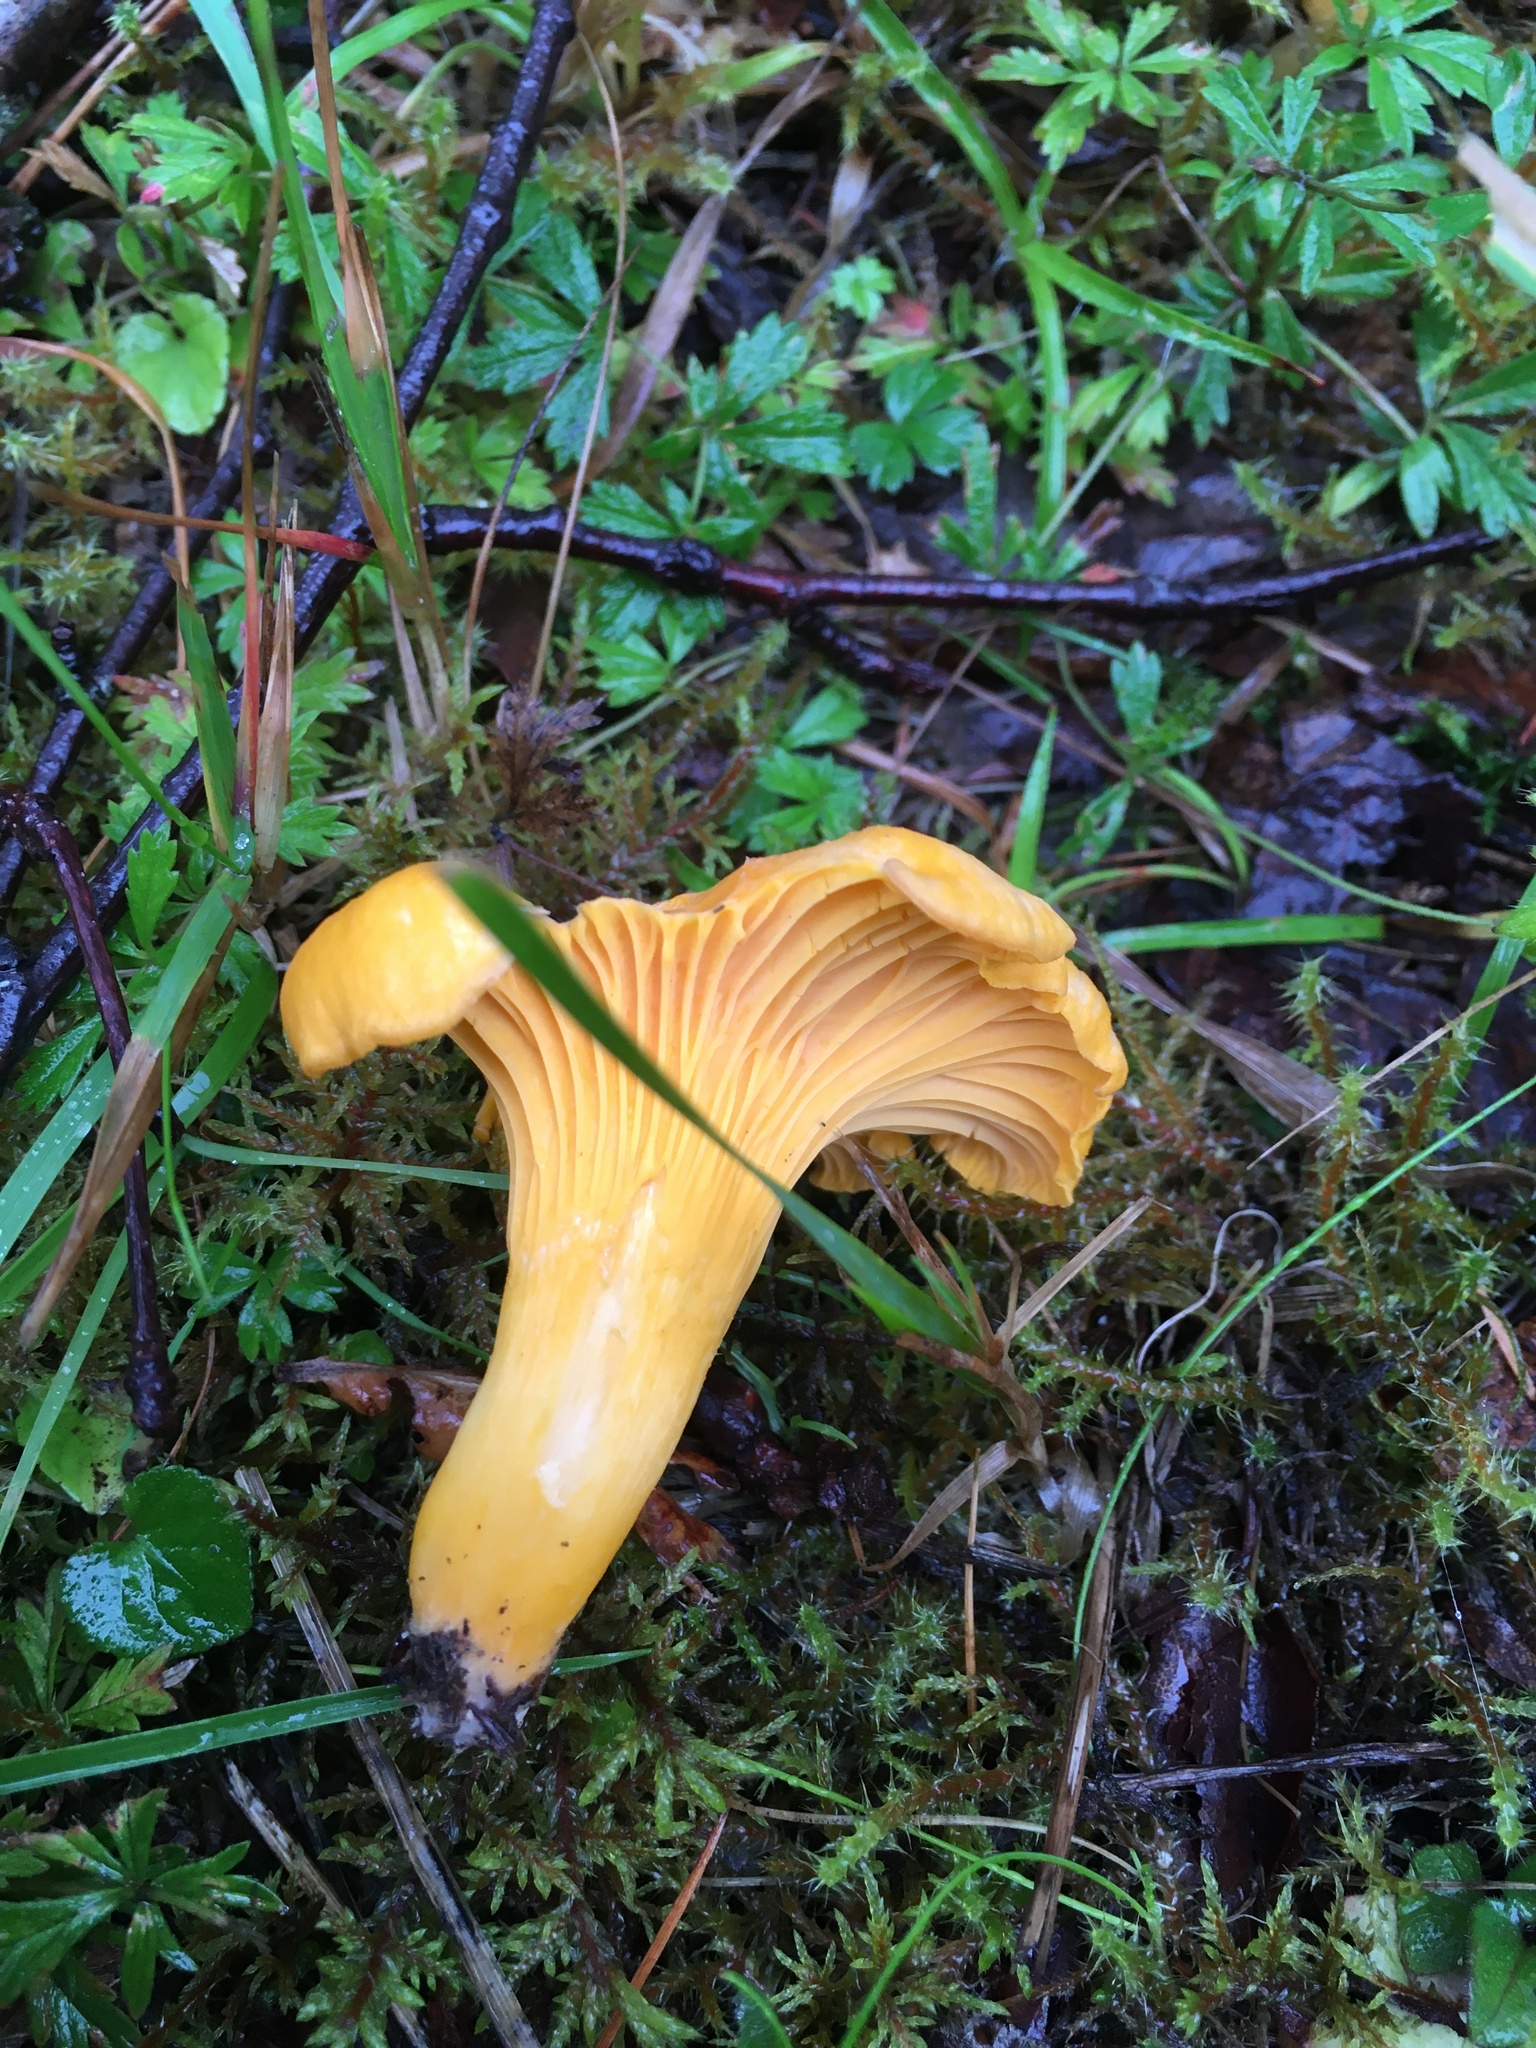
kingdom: Fungi
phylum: Basidiomycota
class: Agaricomycetes
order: Cantharellales
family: Hydnaceae
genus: Cantharellus
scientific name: Cantharellus cibarius
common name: Chanterelle
